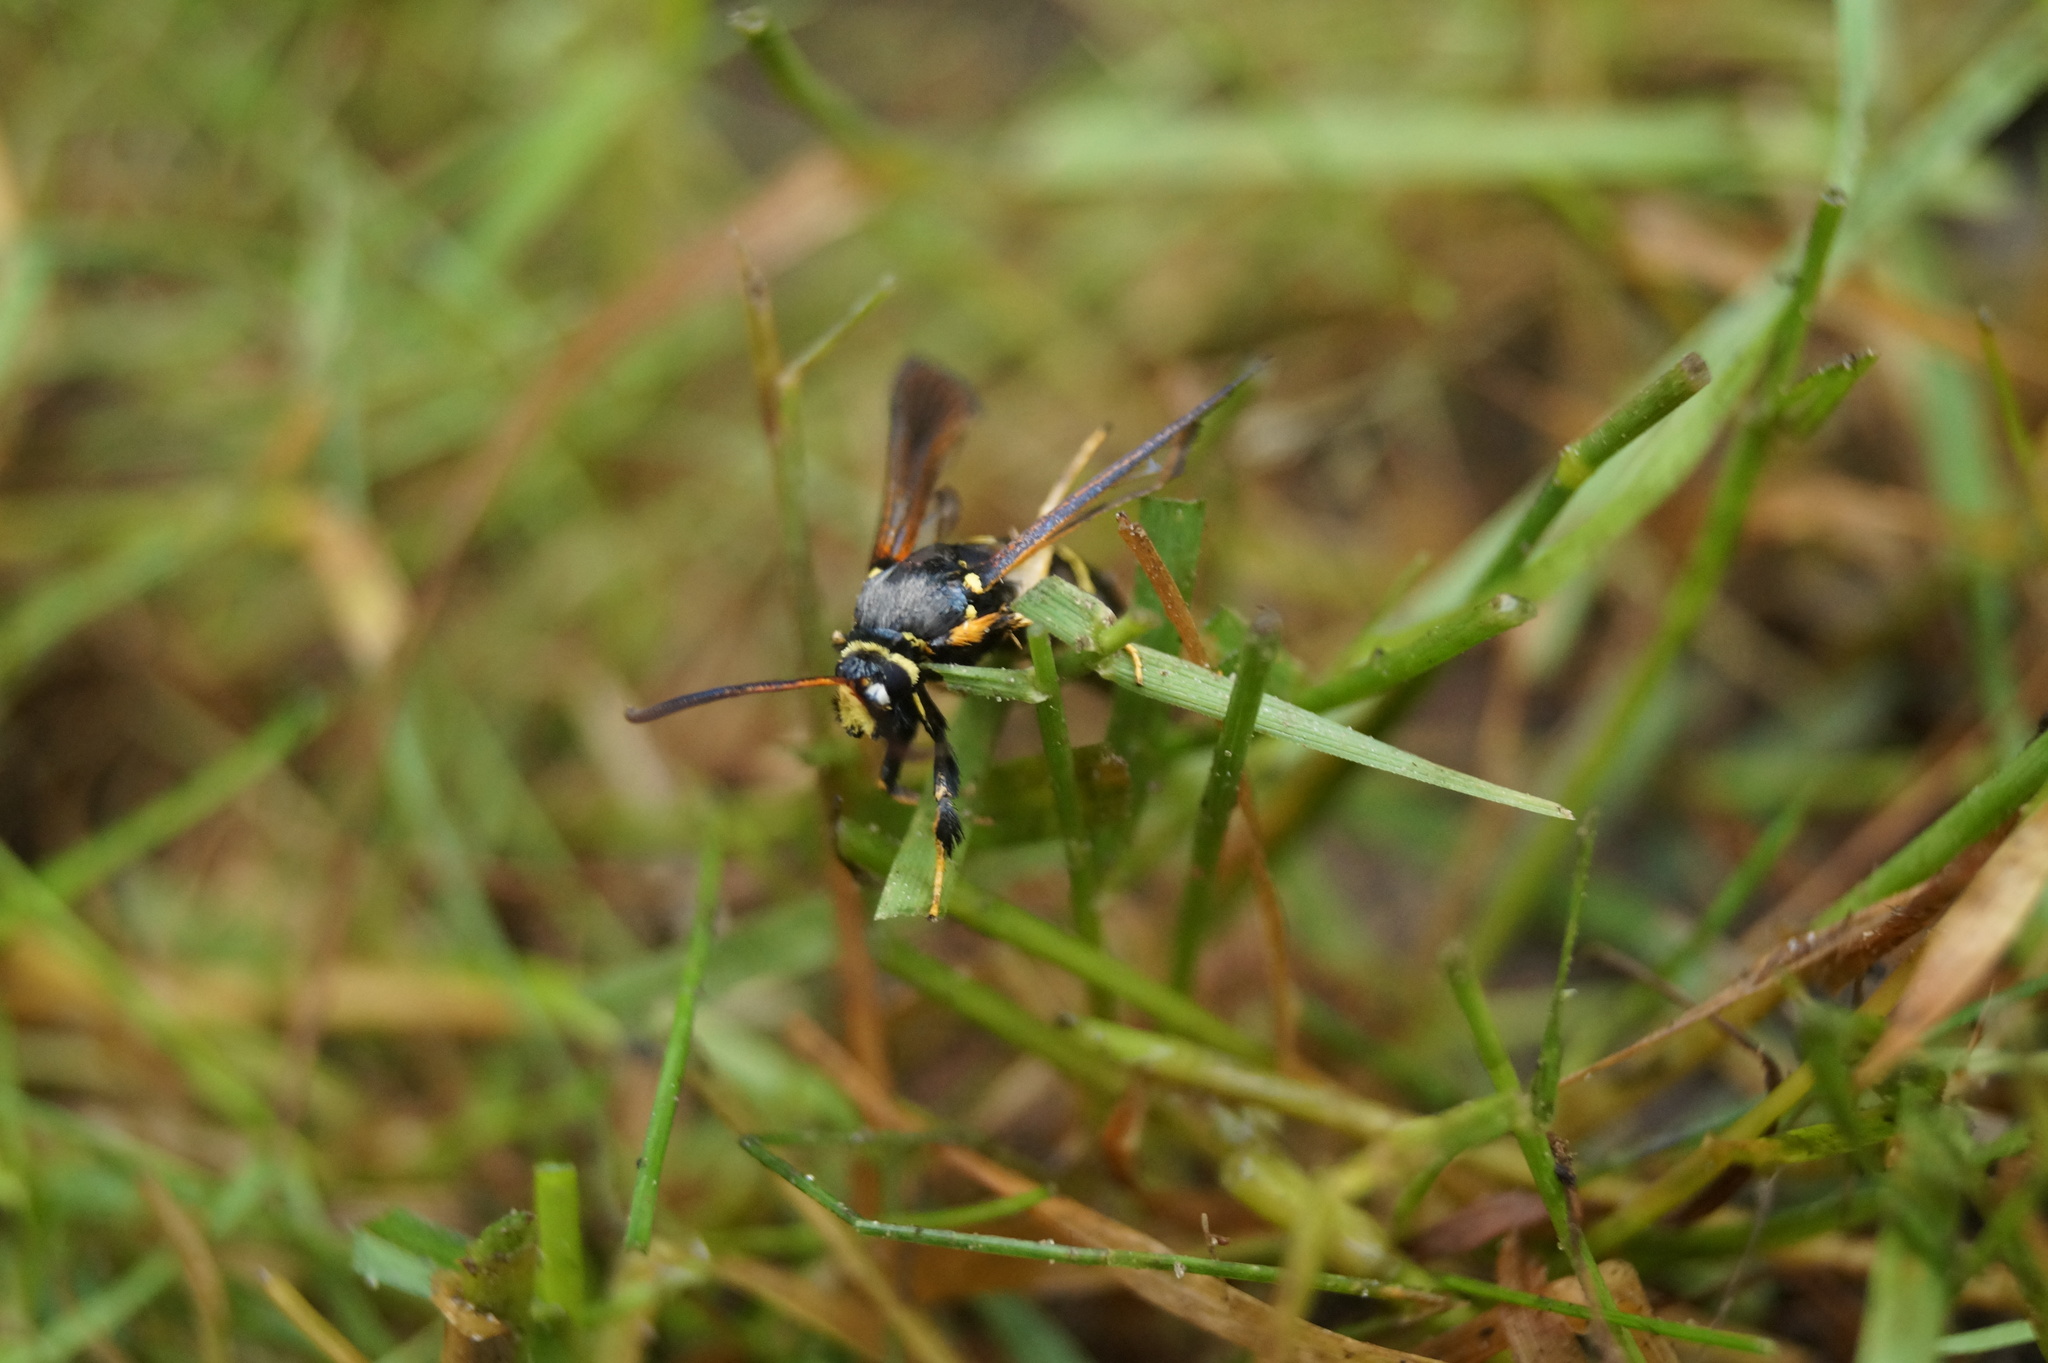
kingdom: Animalia
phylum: Arthropoda
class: Insecta
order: Lepidoptera
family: Sesiidae
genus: Paranthrene
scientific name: Paranthrene tabaniformis
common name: Dusky clearwing
